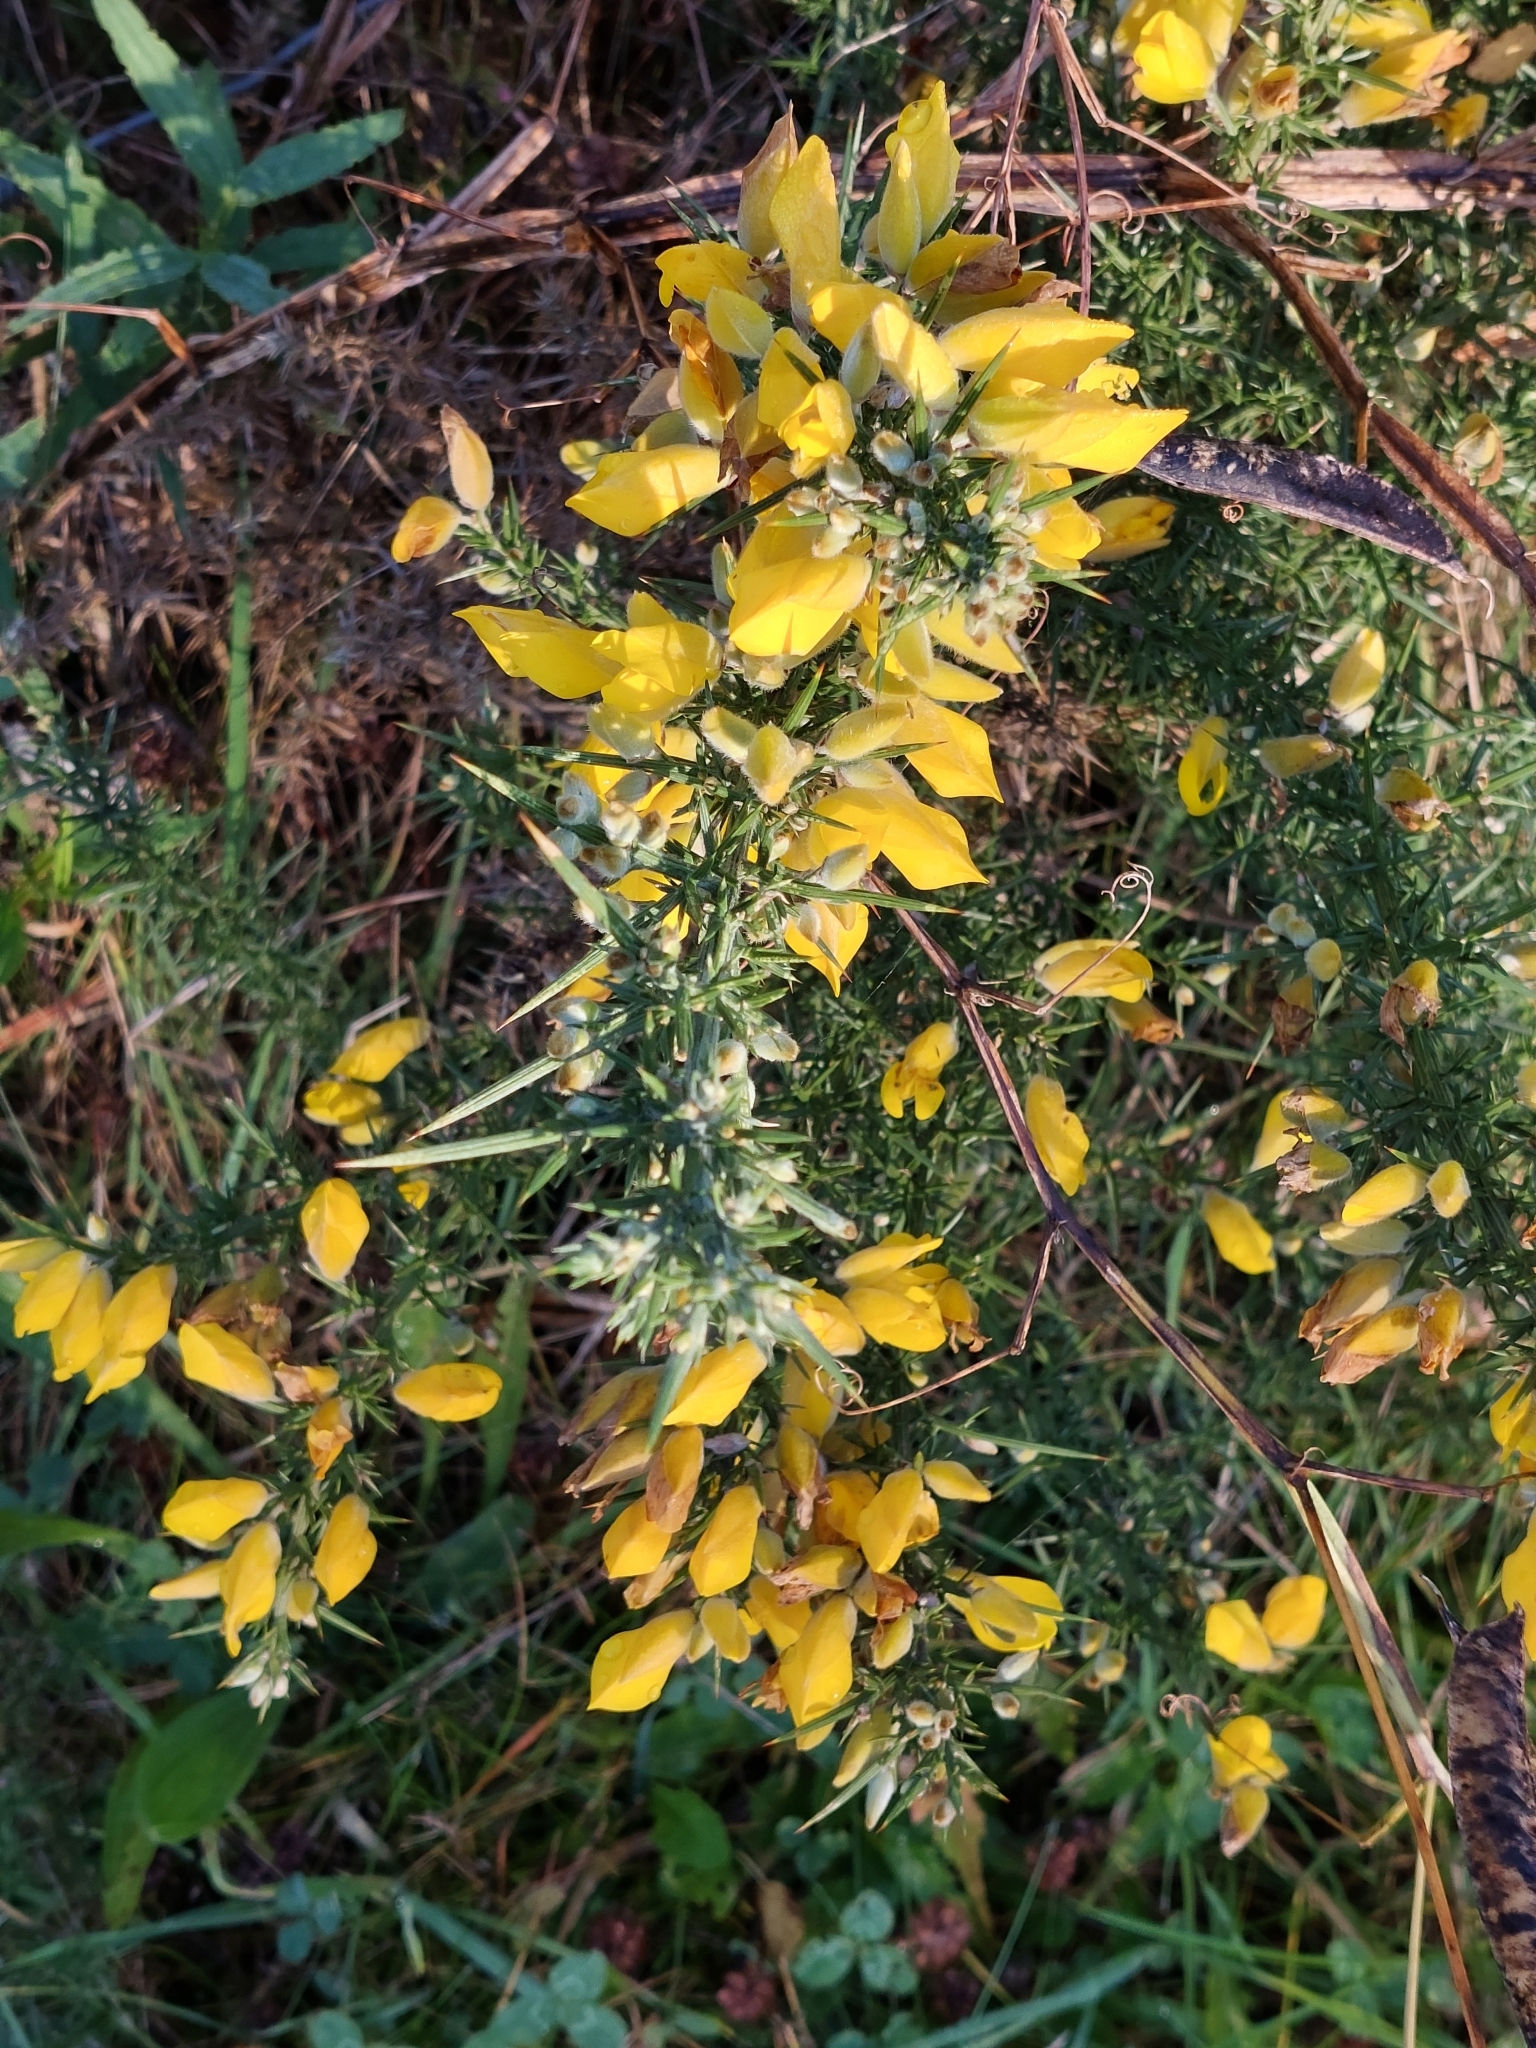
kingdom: Plantae
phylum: Tracheophyta
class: Magnoliopsida
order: Fabales
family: Fabaceae
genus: Ulex
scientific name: Ulex europaeus
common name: Common gorse
